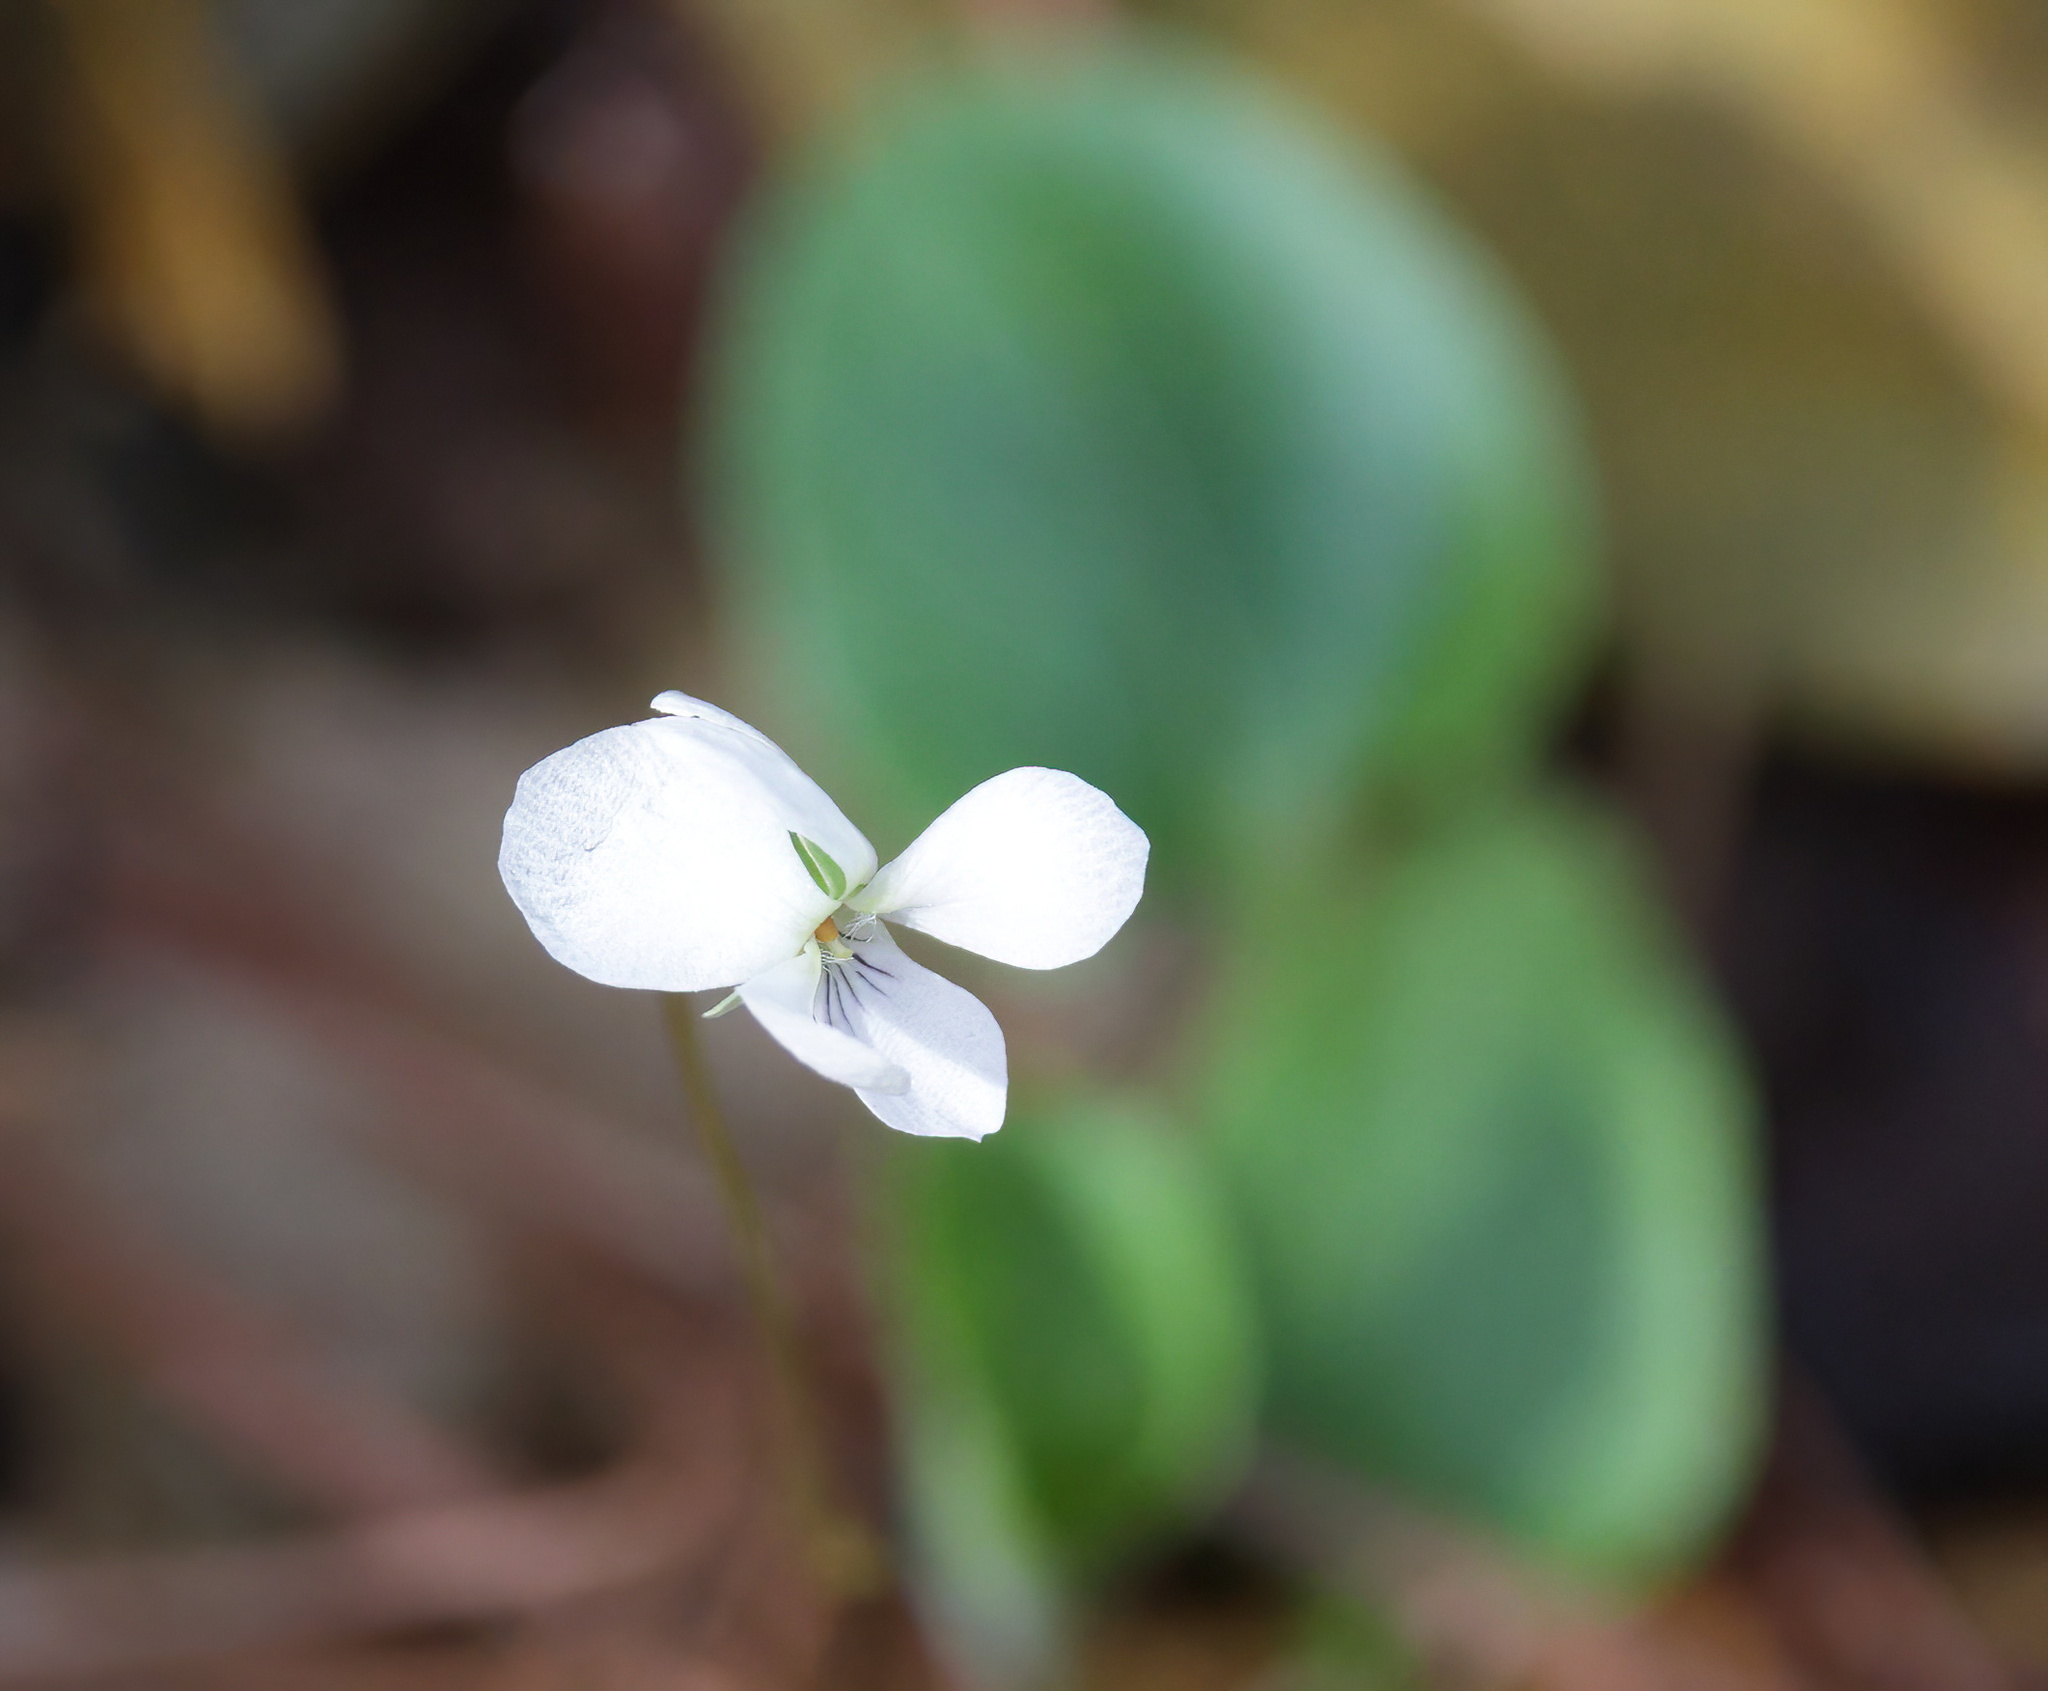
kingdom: Plantae
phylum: Tracheophyta
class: Magnoliopsida
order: Malpighiales
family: Violaceae
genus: Viola
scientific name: Viola primulifolia
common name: Primrose-leaf violet
